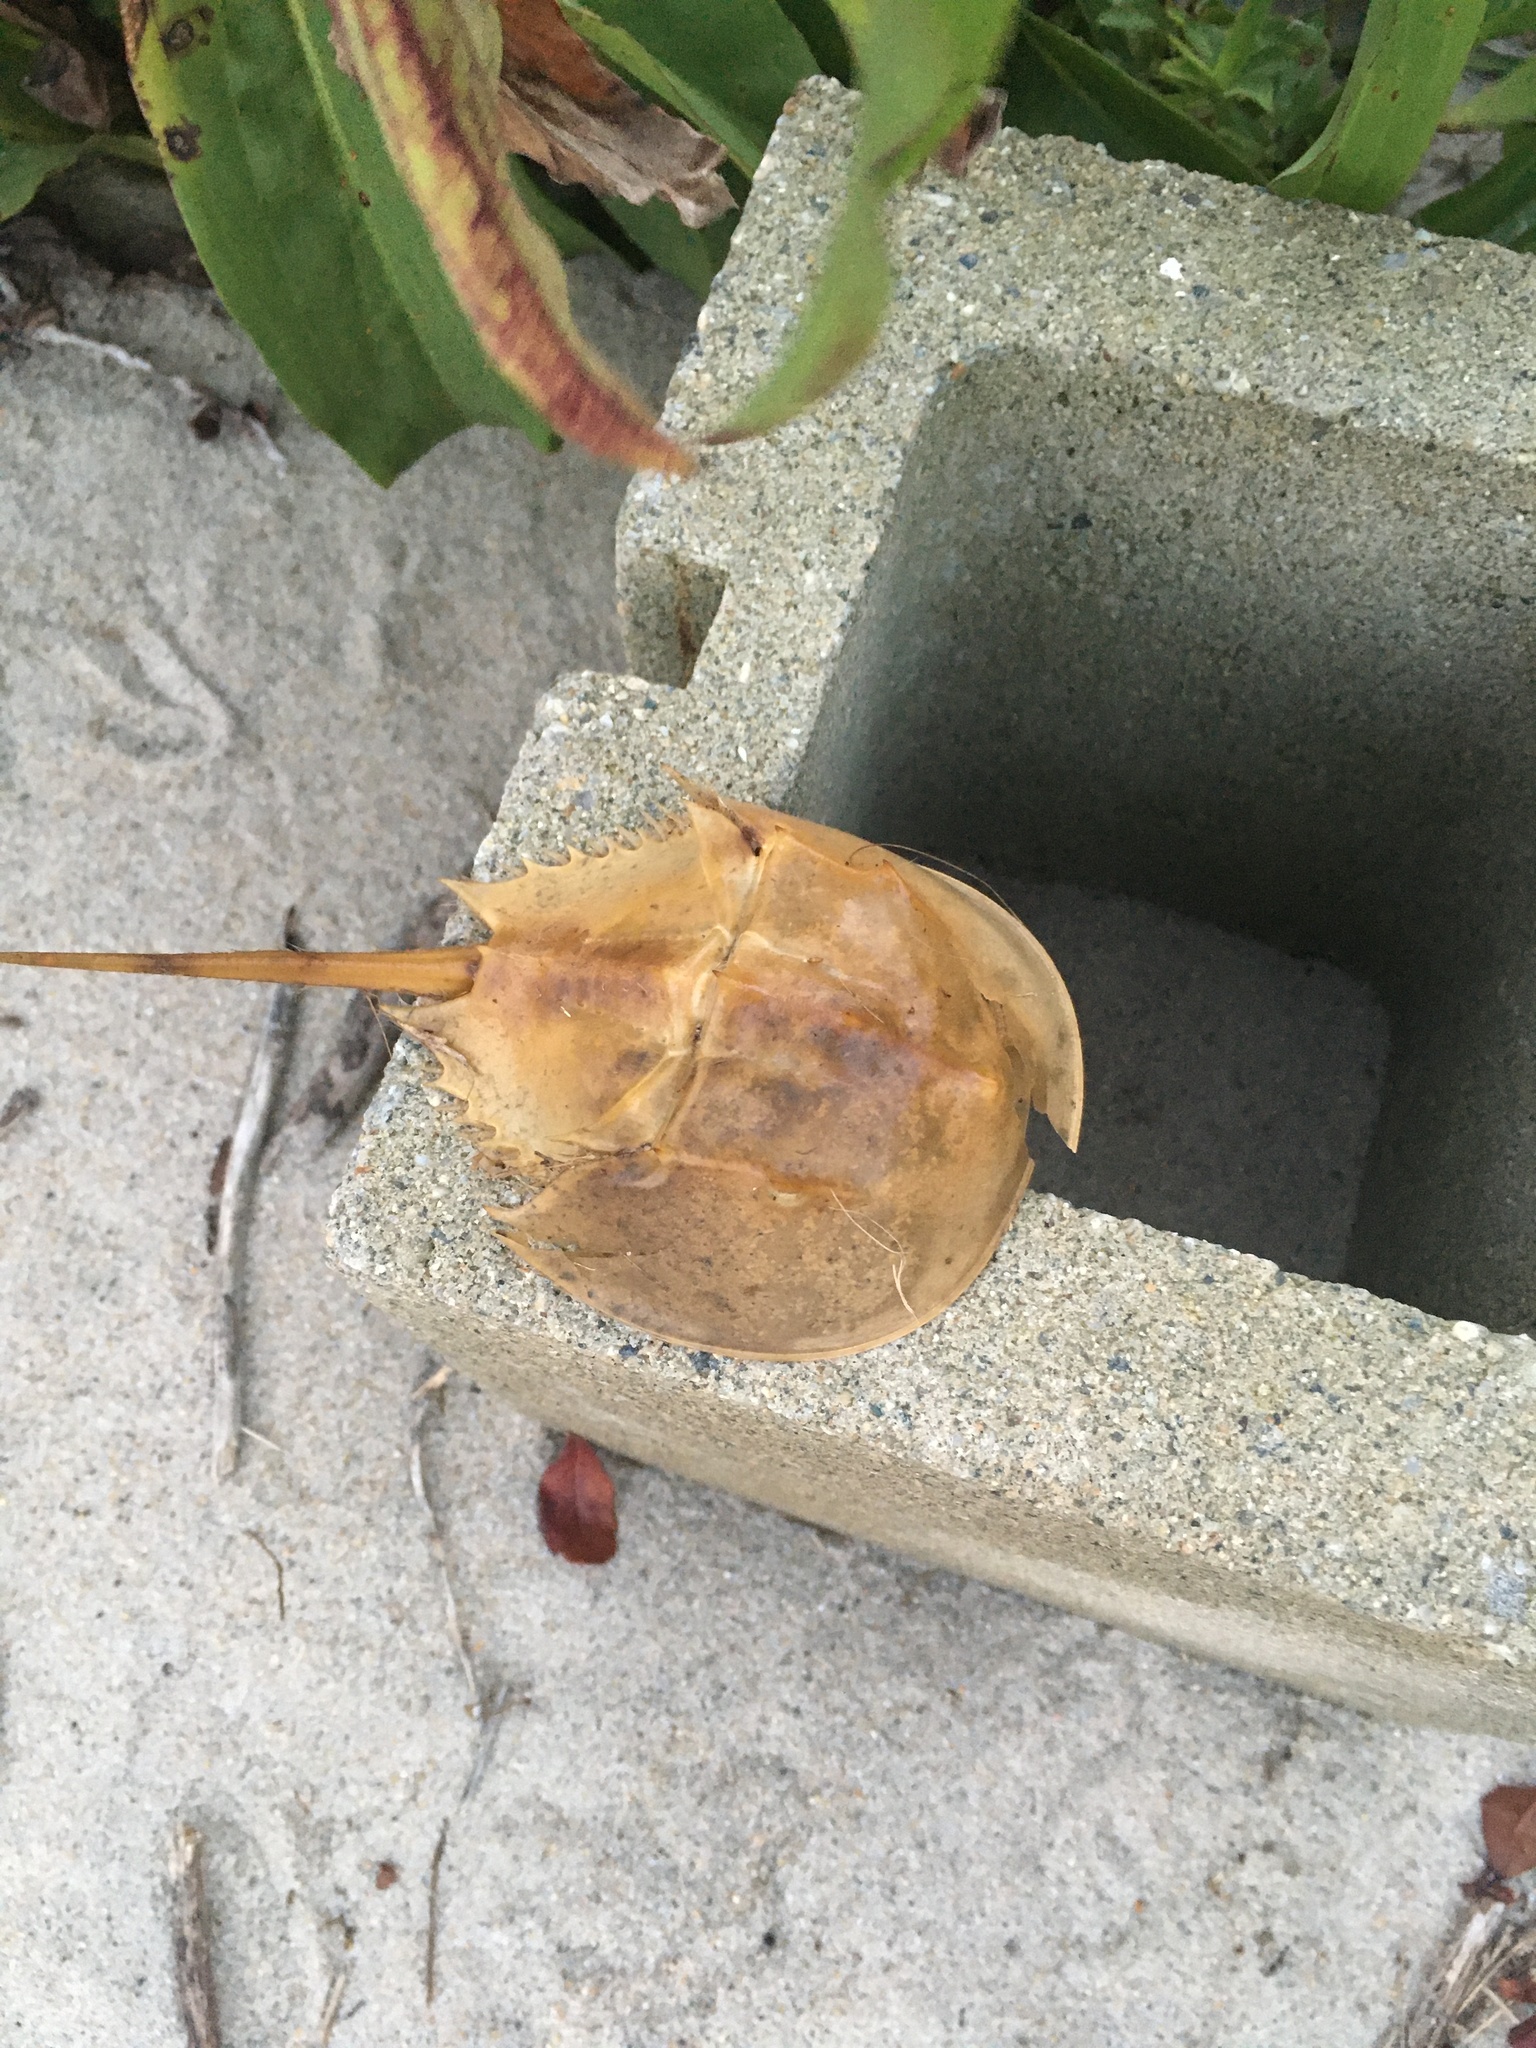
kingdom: Animalia
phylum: Arthropoda
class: Merostomata
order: Xiphosurida
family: Limulidae
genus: Limulus
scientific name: Limulus polyphemus
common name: Horseshoe crab
